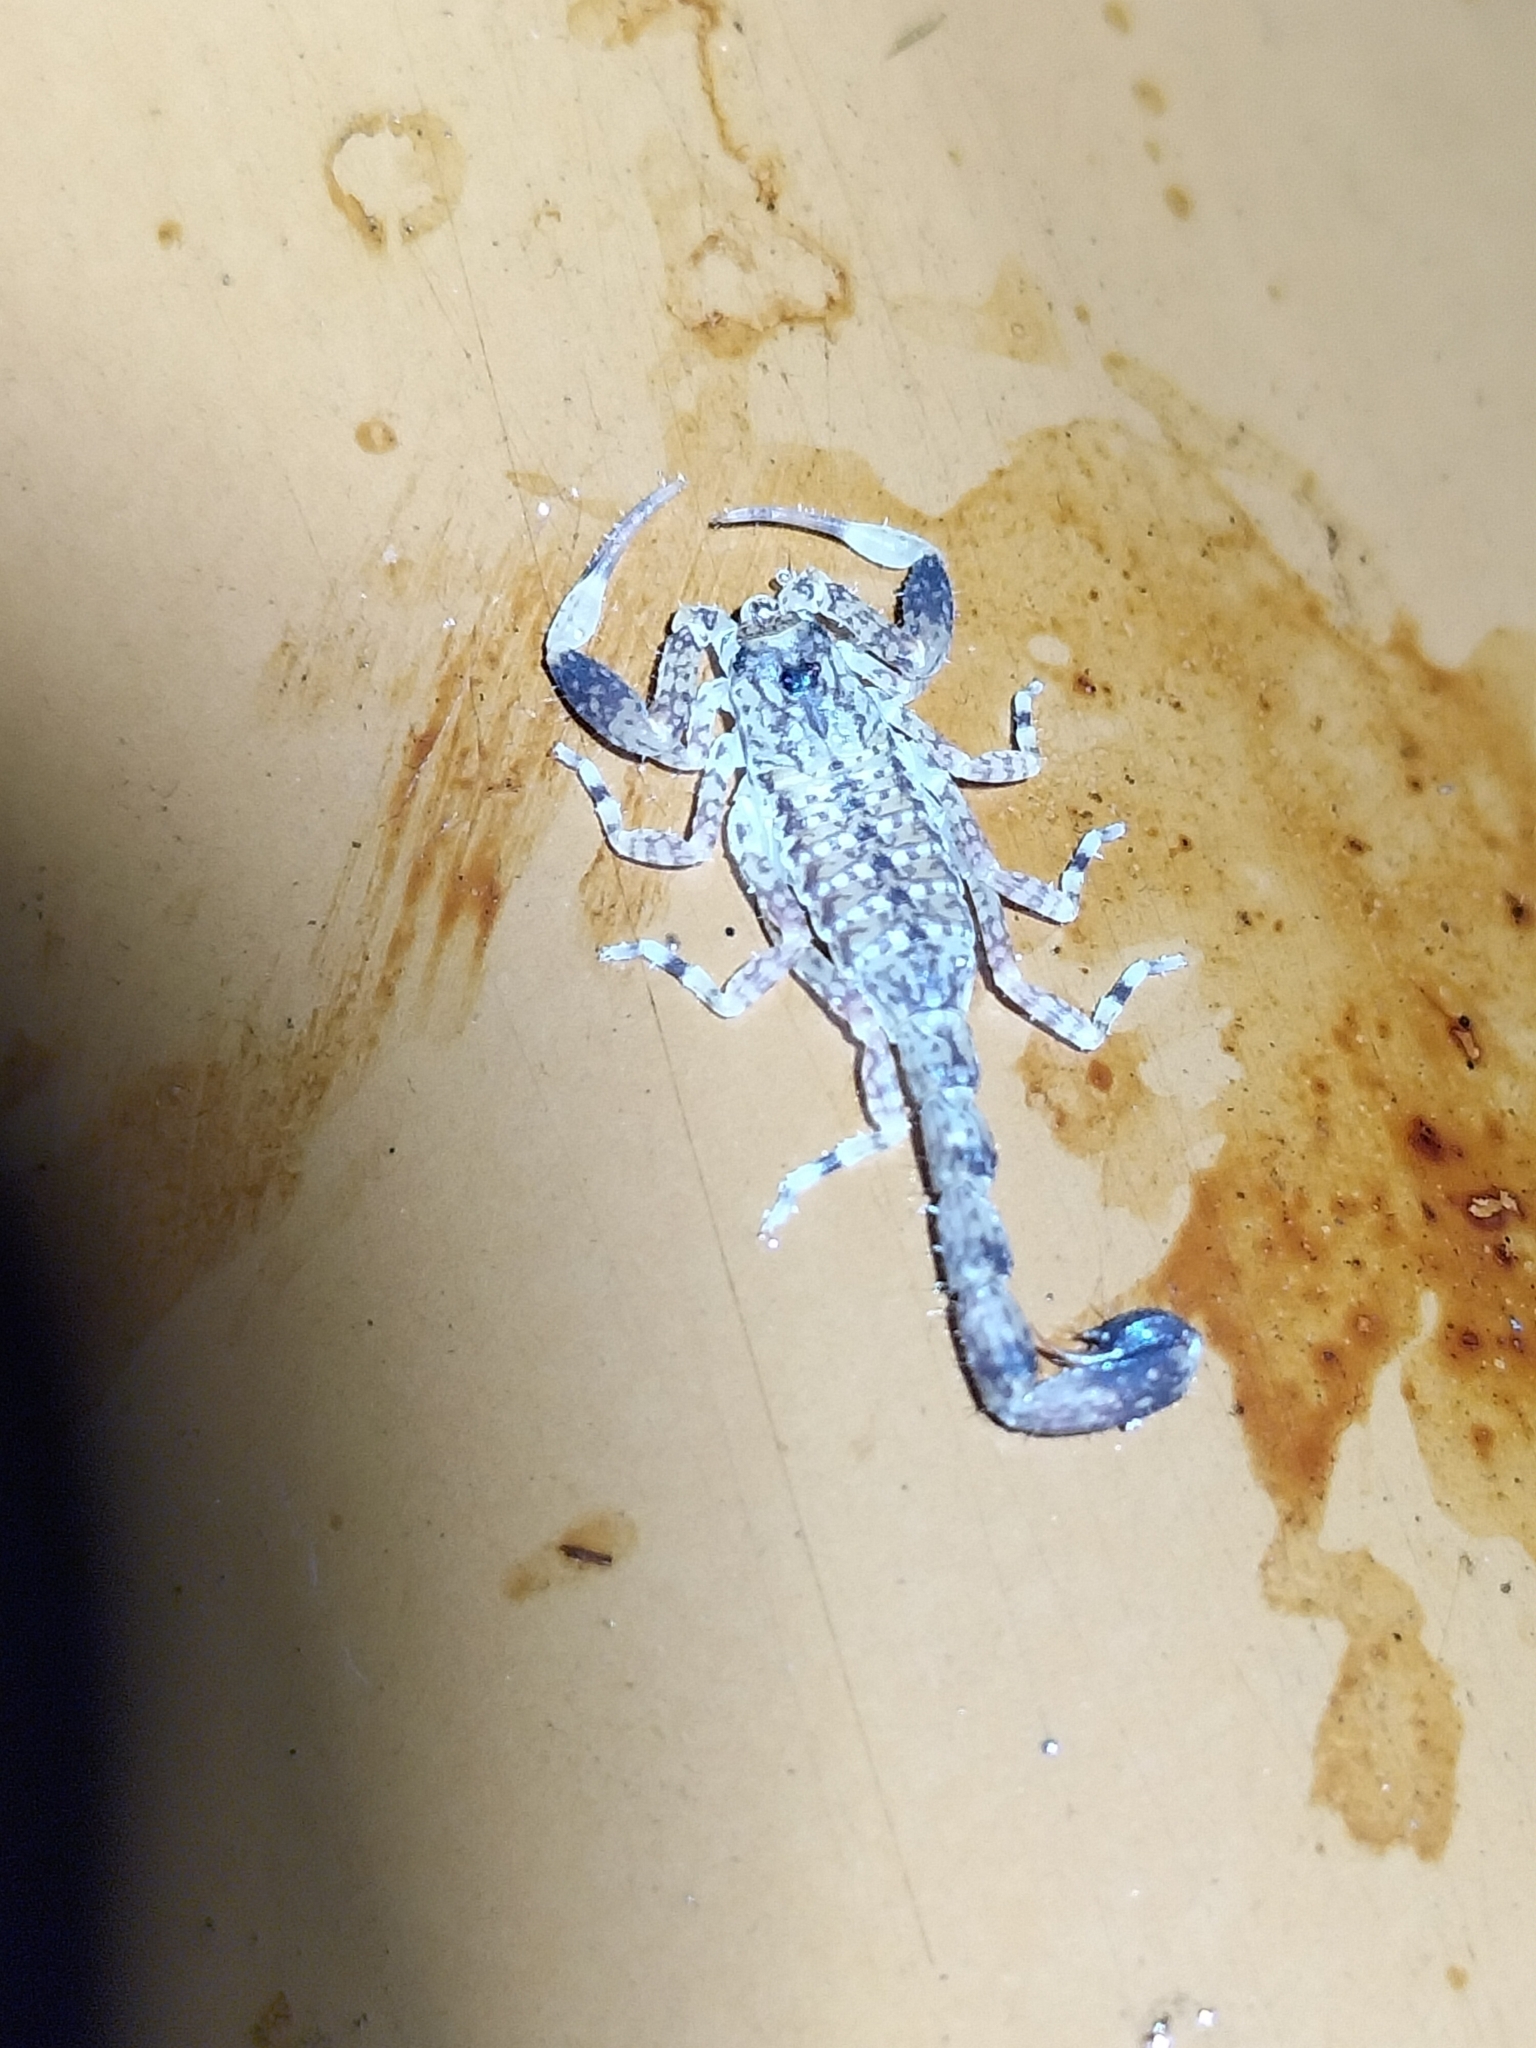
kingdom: Animalia
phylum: Arthropoda
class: Arachnida
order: Scorpiones
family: Buthidae
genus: Lychas
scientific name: Lychas variatus
